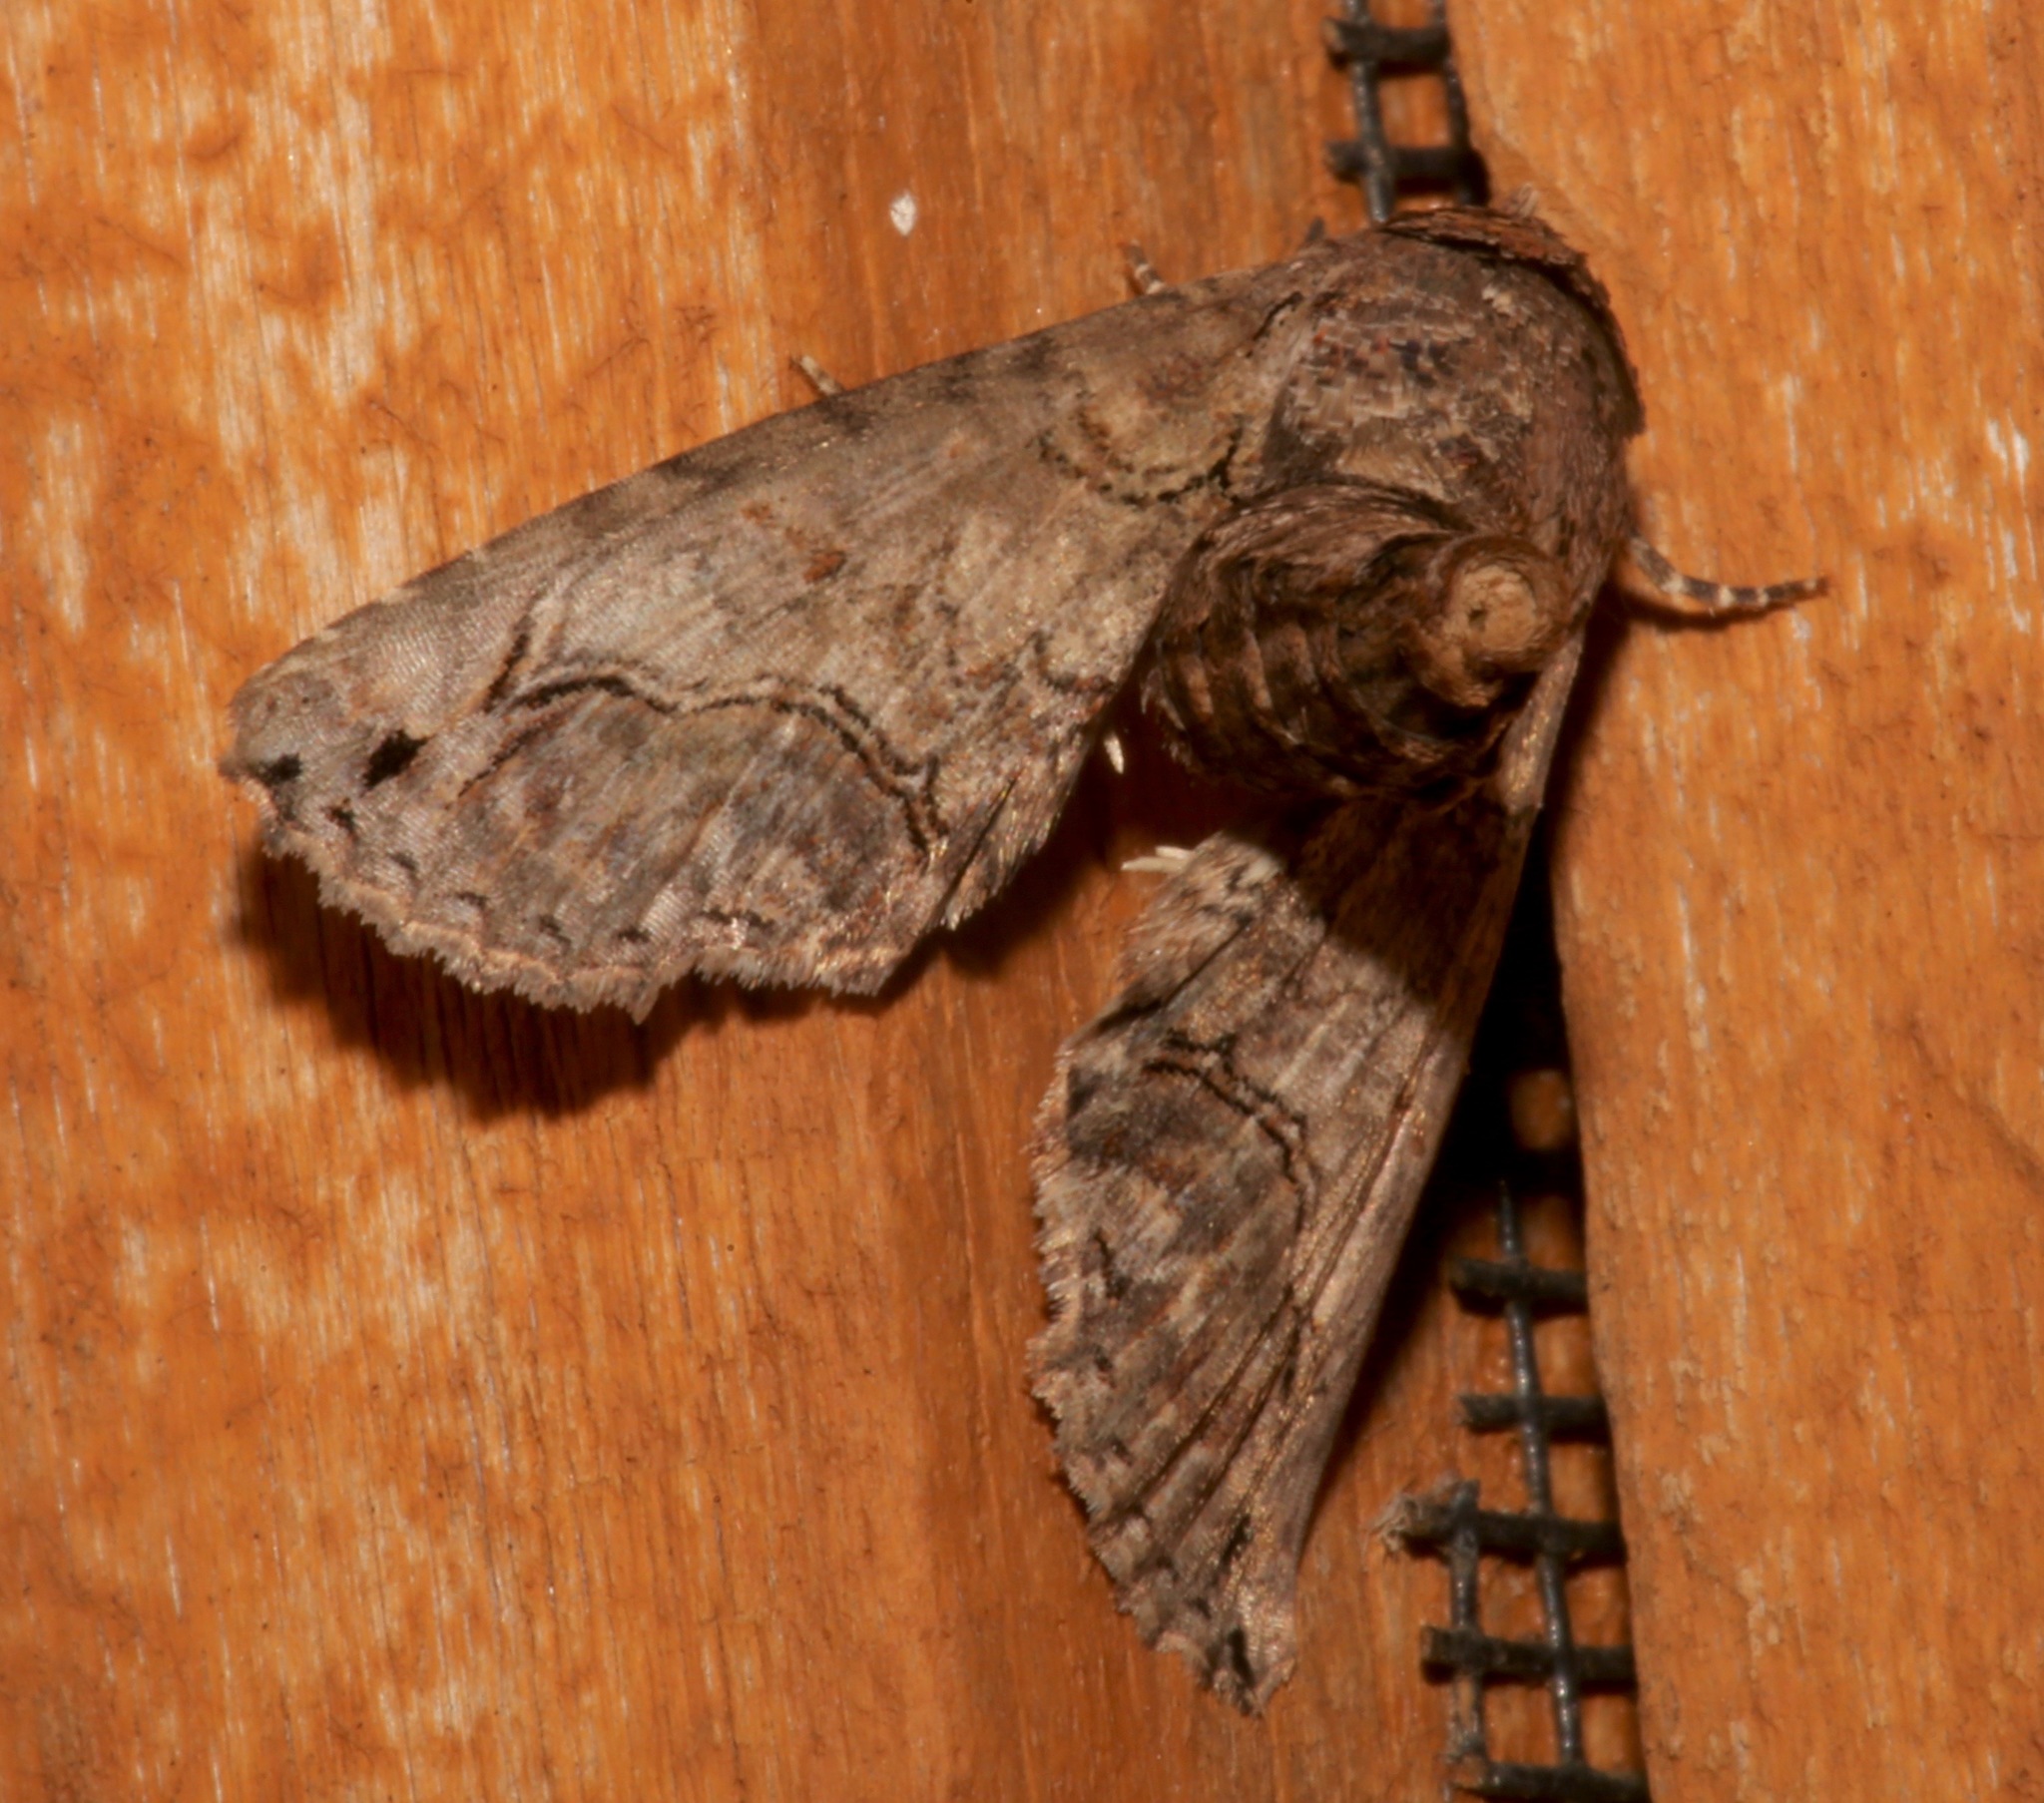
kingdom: Animalia
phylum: Arthropoda
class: Insecta
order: Lepidoptera
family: Euteliidae
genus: Paectes
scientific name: Paectes abrostoloides
